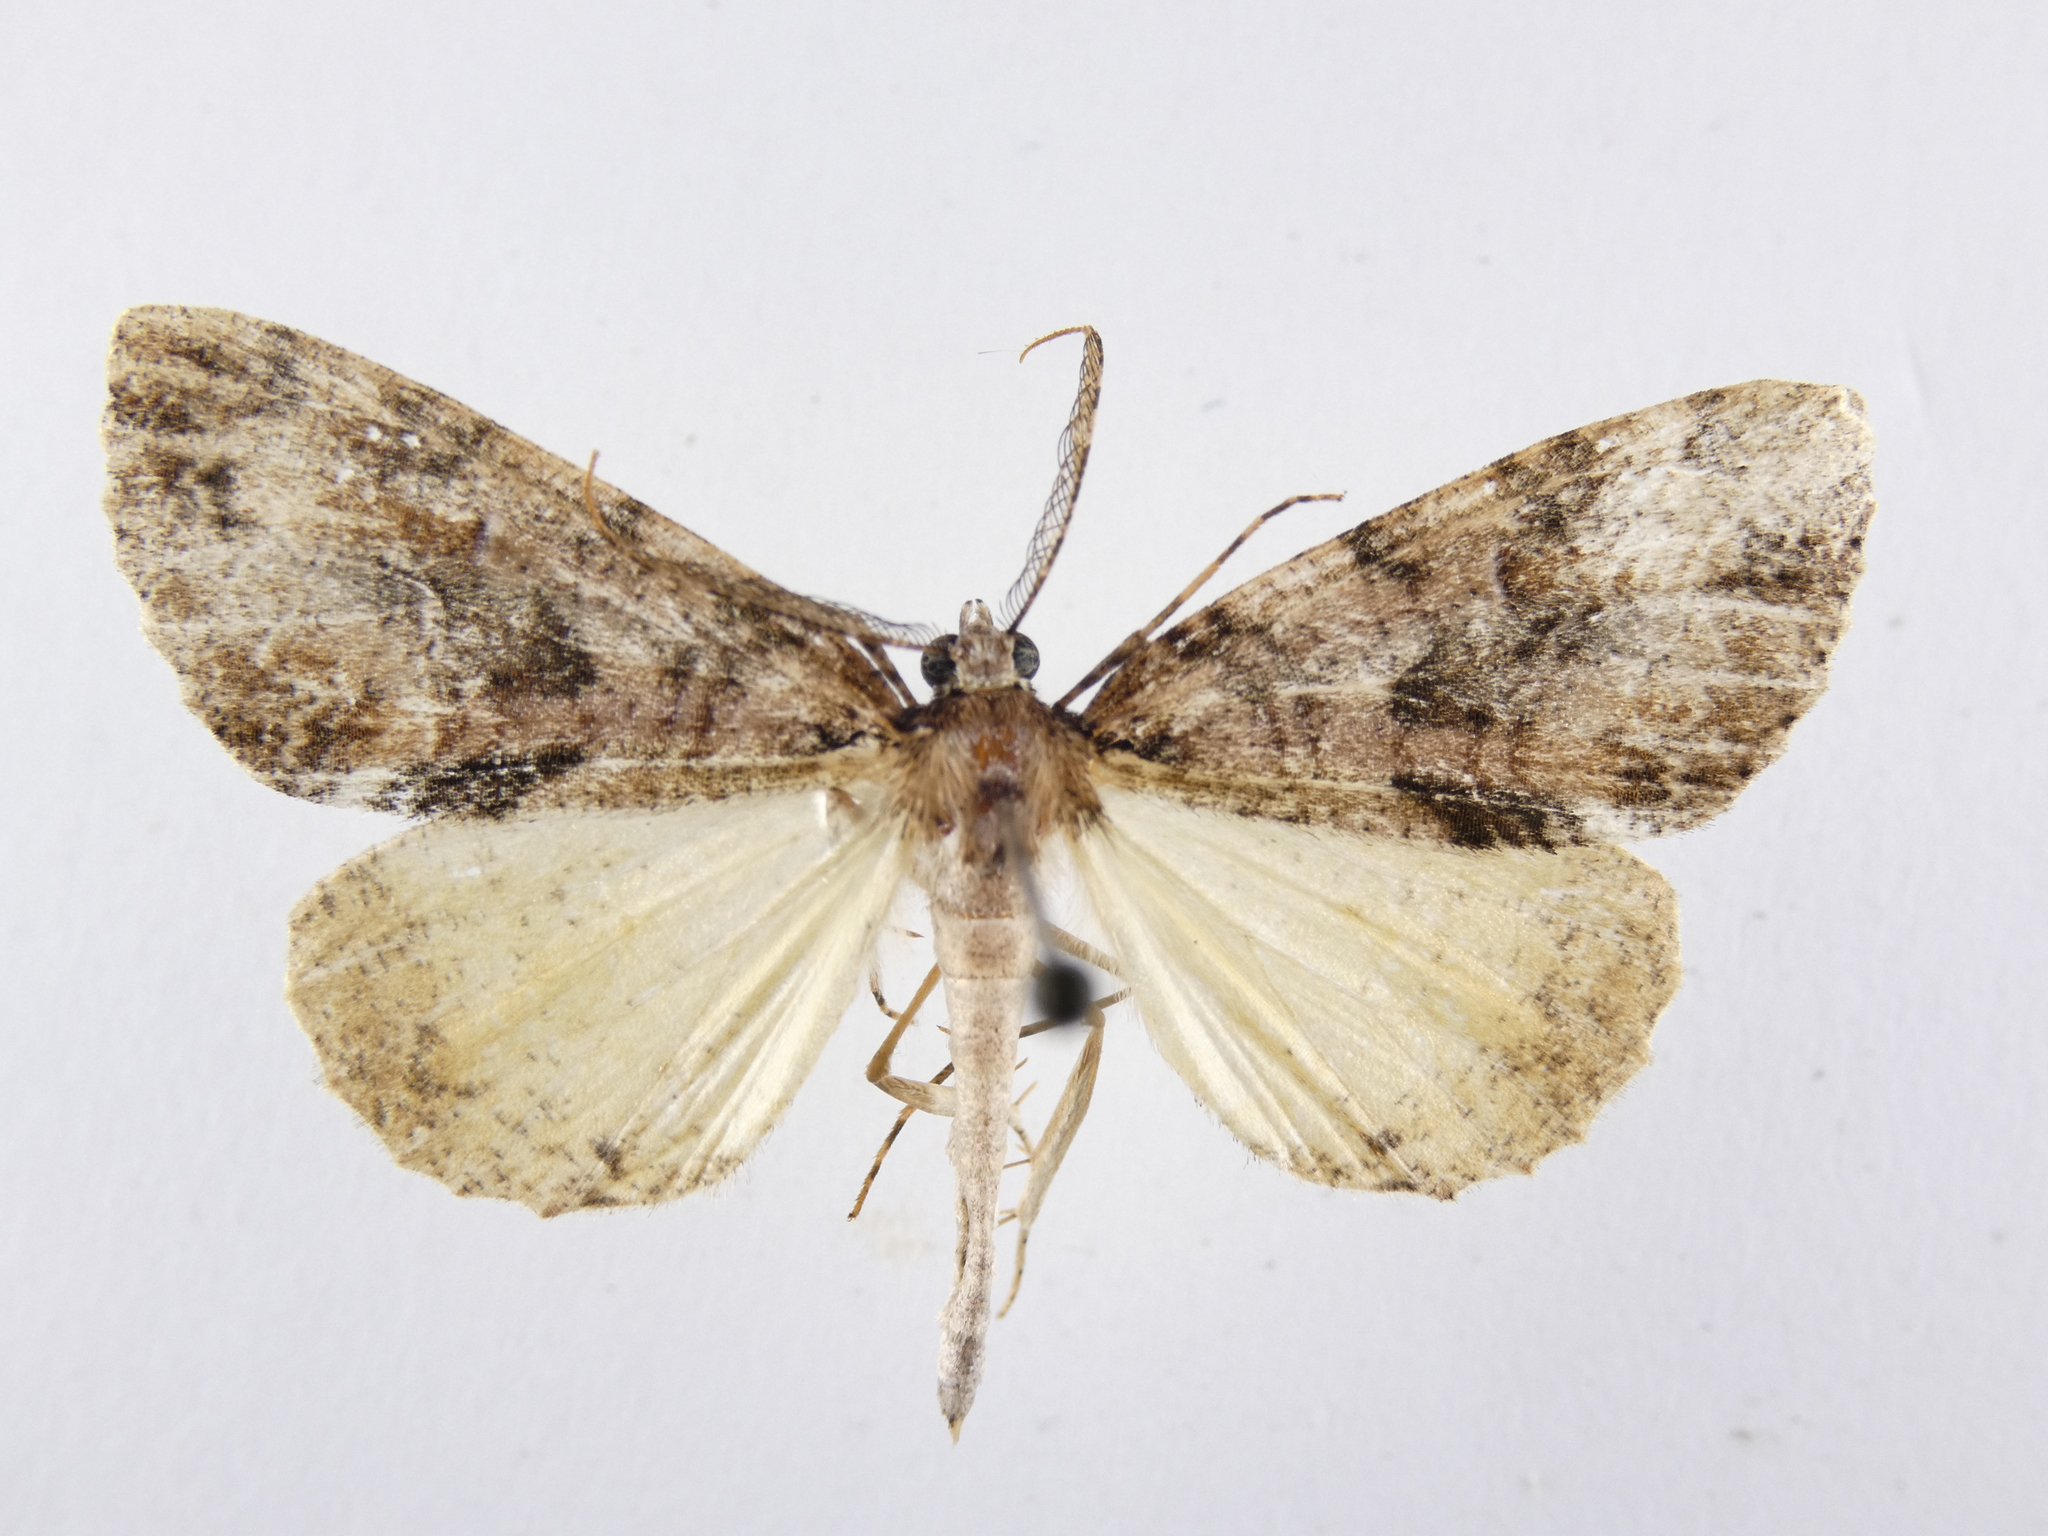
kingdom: Animalia
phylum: Arthropoda
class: Insecta
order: Lepidoptera
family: Geometridae
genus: Pseudocoremia
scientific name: Pseudocoremia suavis
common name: Common forest looper
